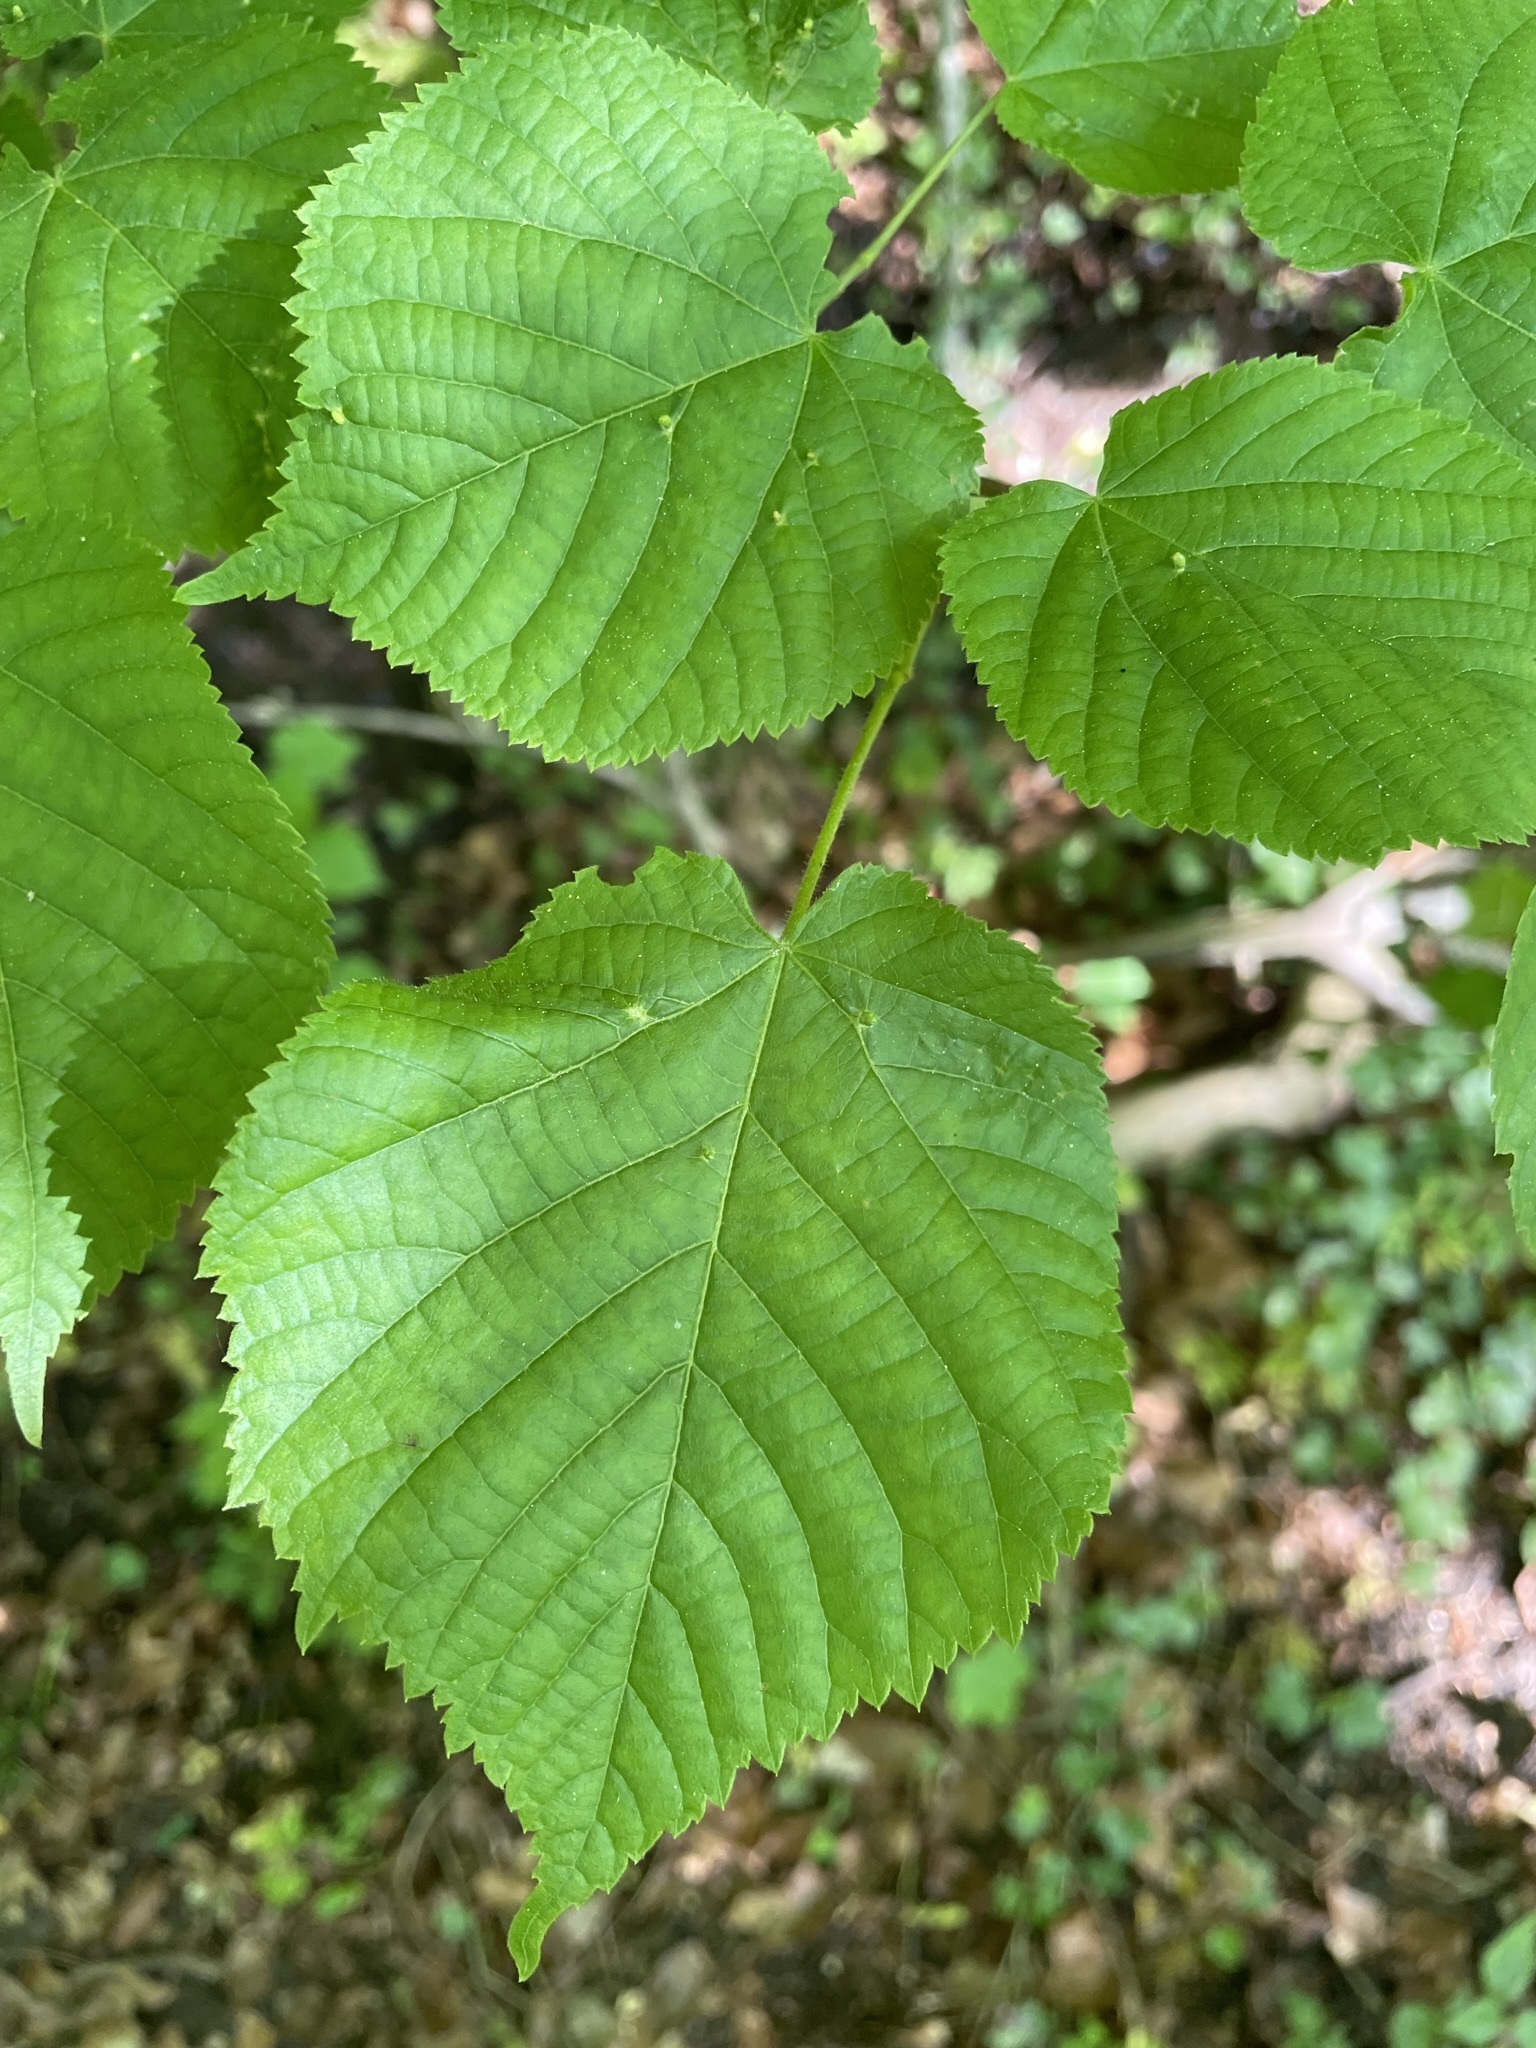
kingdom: Plantae
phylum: Tracheophyta
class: Magnoliopsida
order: Malvales
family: Malvaceae
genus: Tilia
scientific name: Tilia platyphyllos
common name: Large-leaved lime
